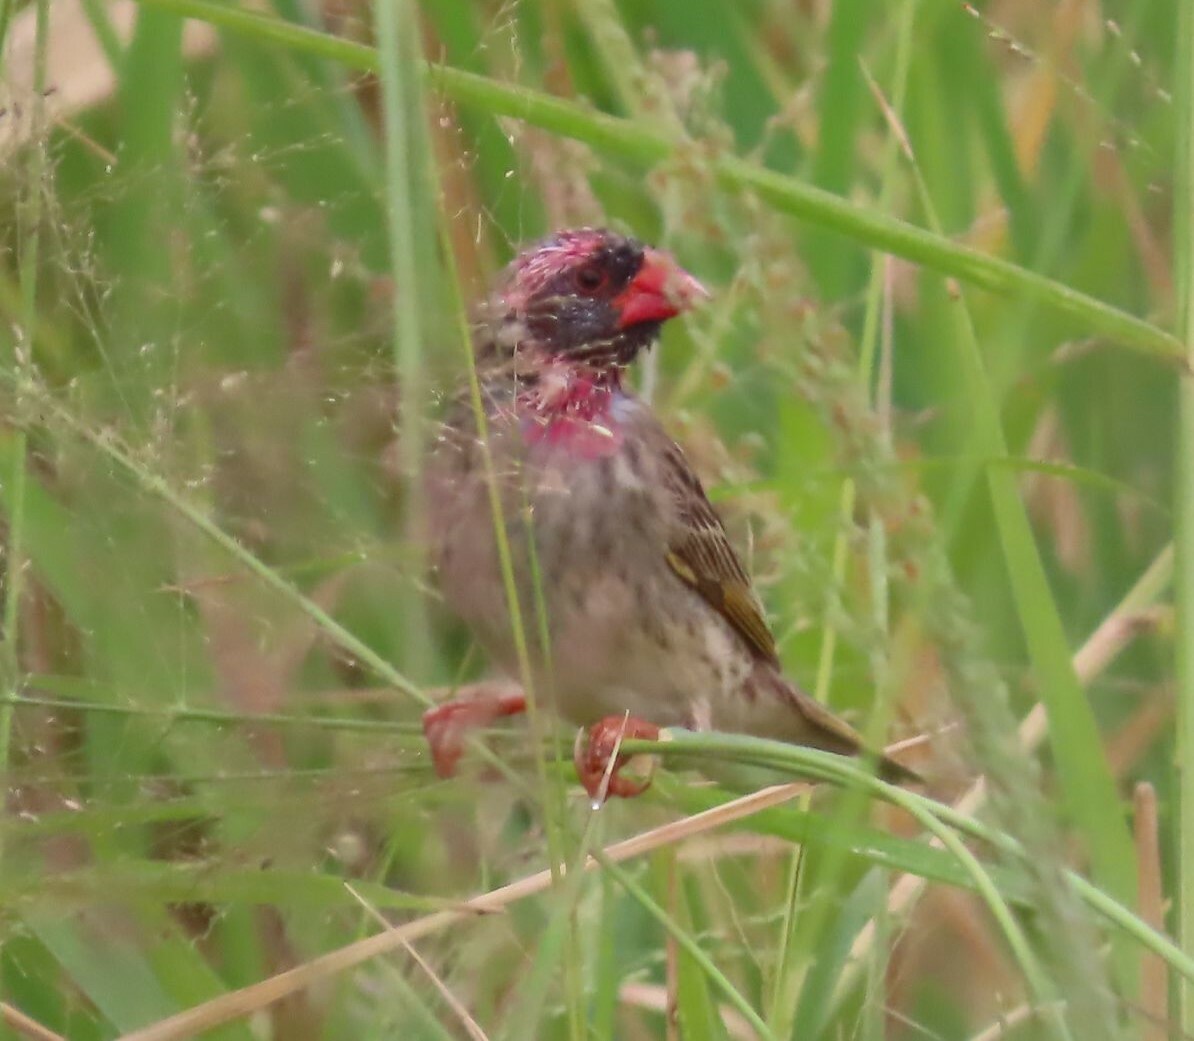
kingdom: Animalia
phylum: Chordata
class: Aves
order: Passeriformes
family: Ploceidae
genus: Quelea
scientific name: Quelea quelea
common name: Red-billed quelea
